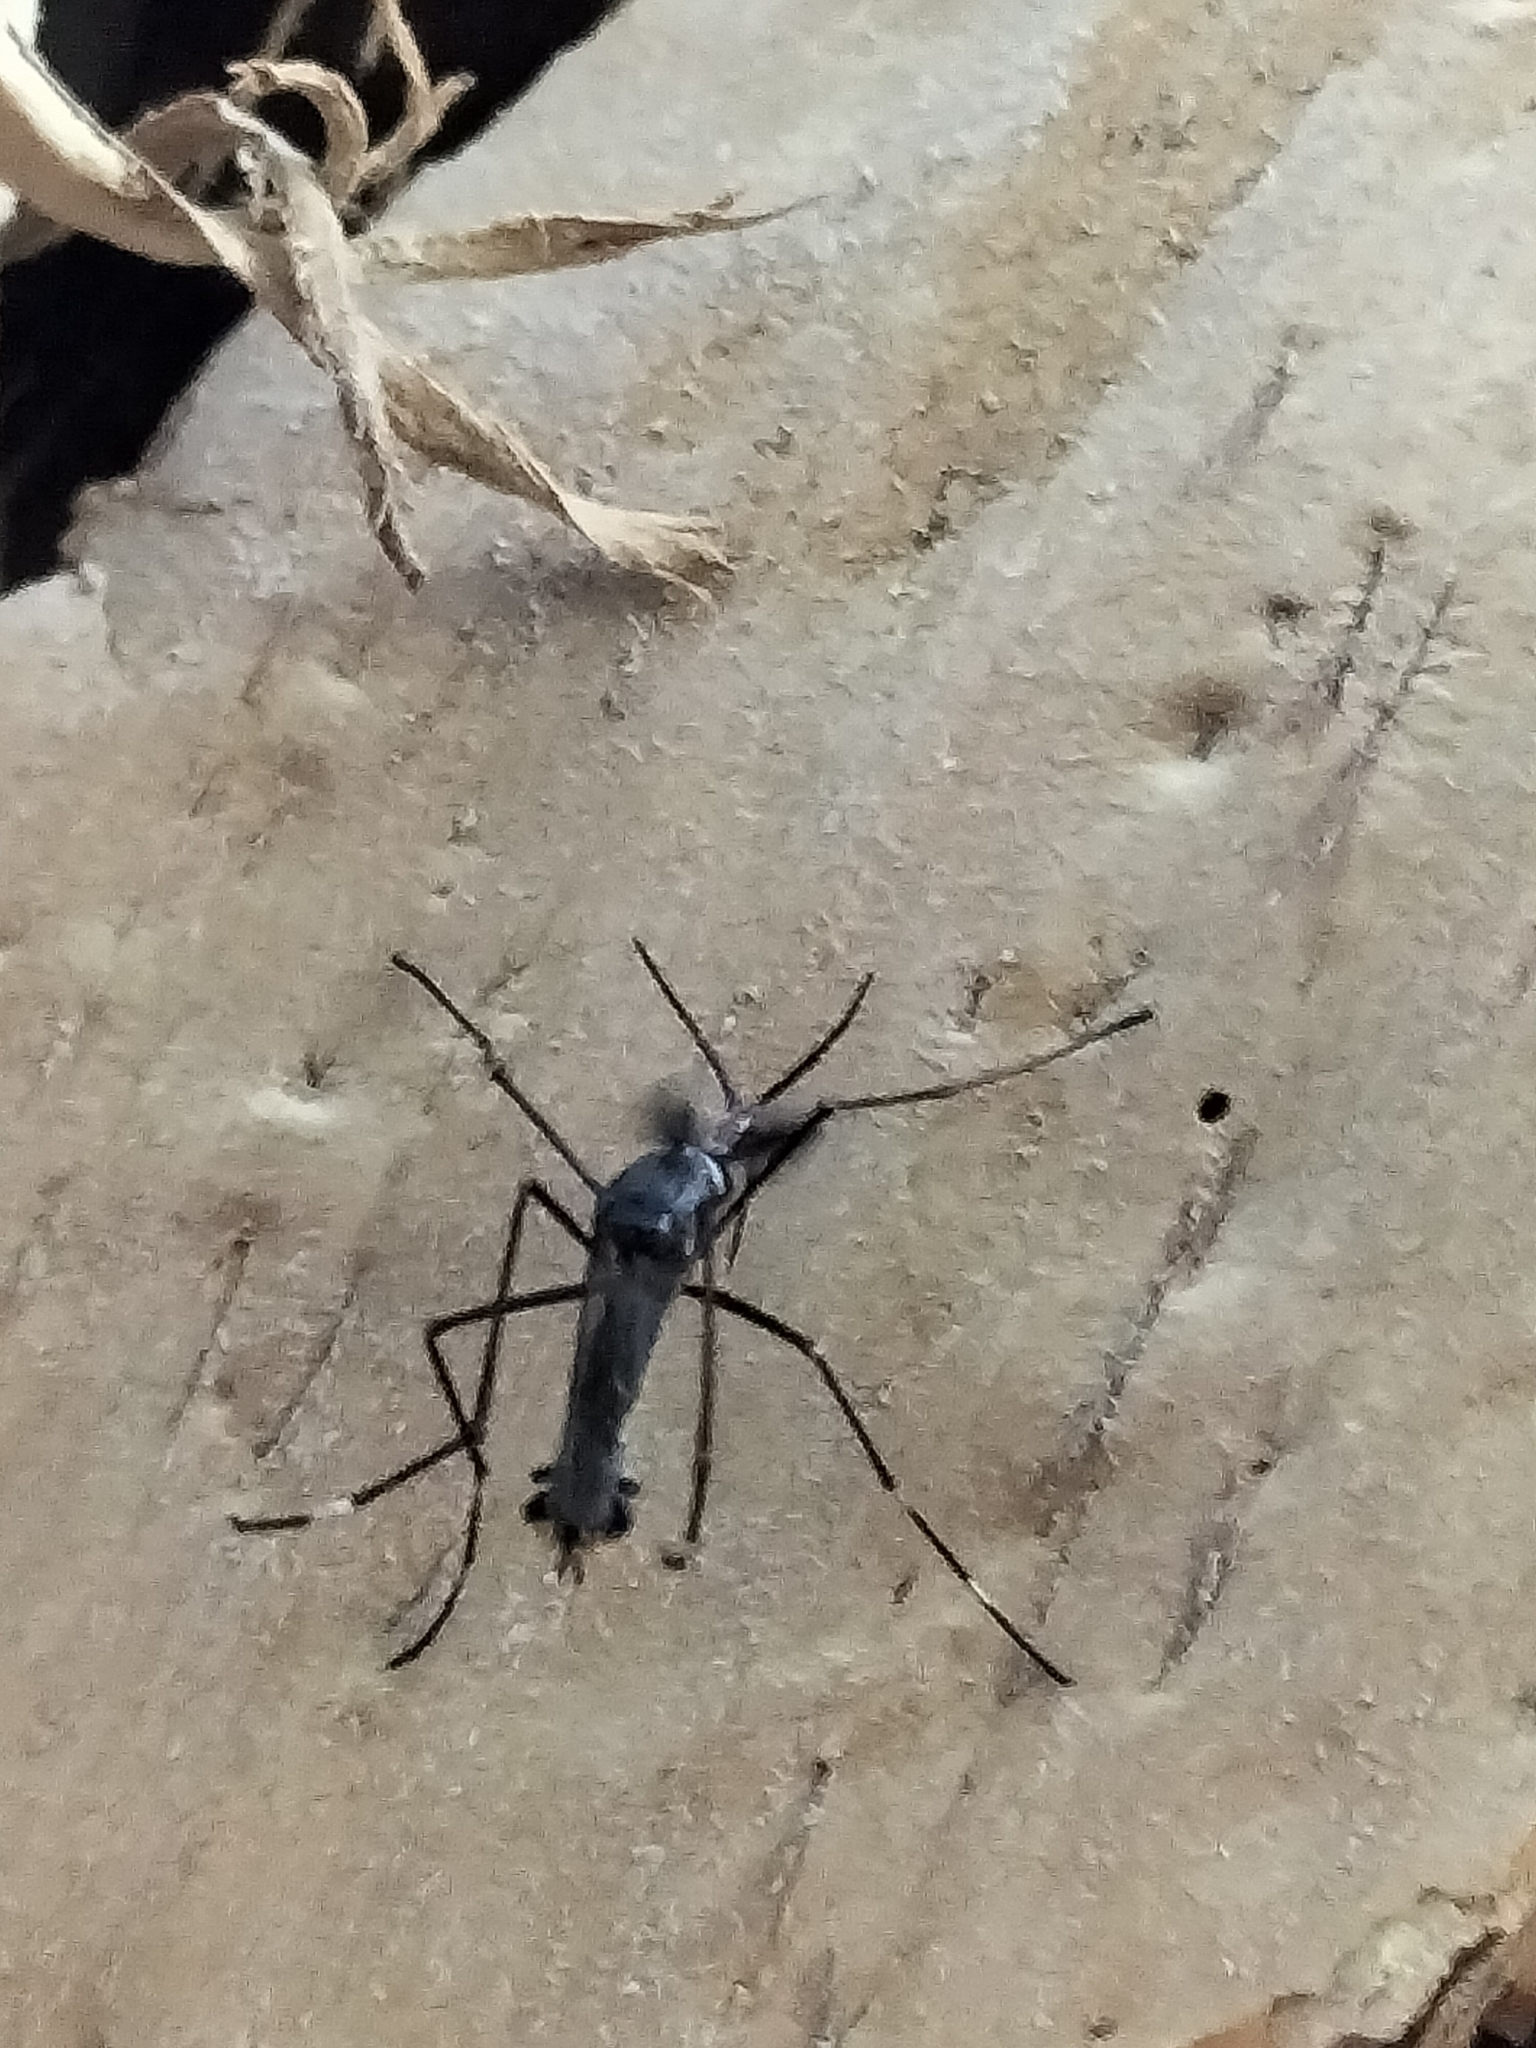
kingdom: Animalia
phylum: Arthropoda
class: Insecta
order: Diptera
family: Culicidae
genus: Toxorhynchites
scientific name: Toxorhynchites speciosus
